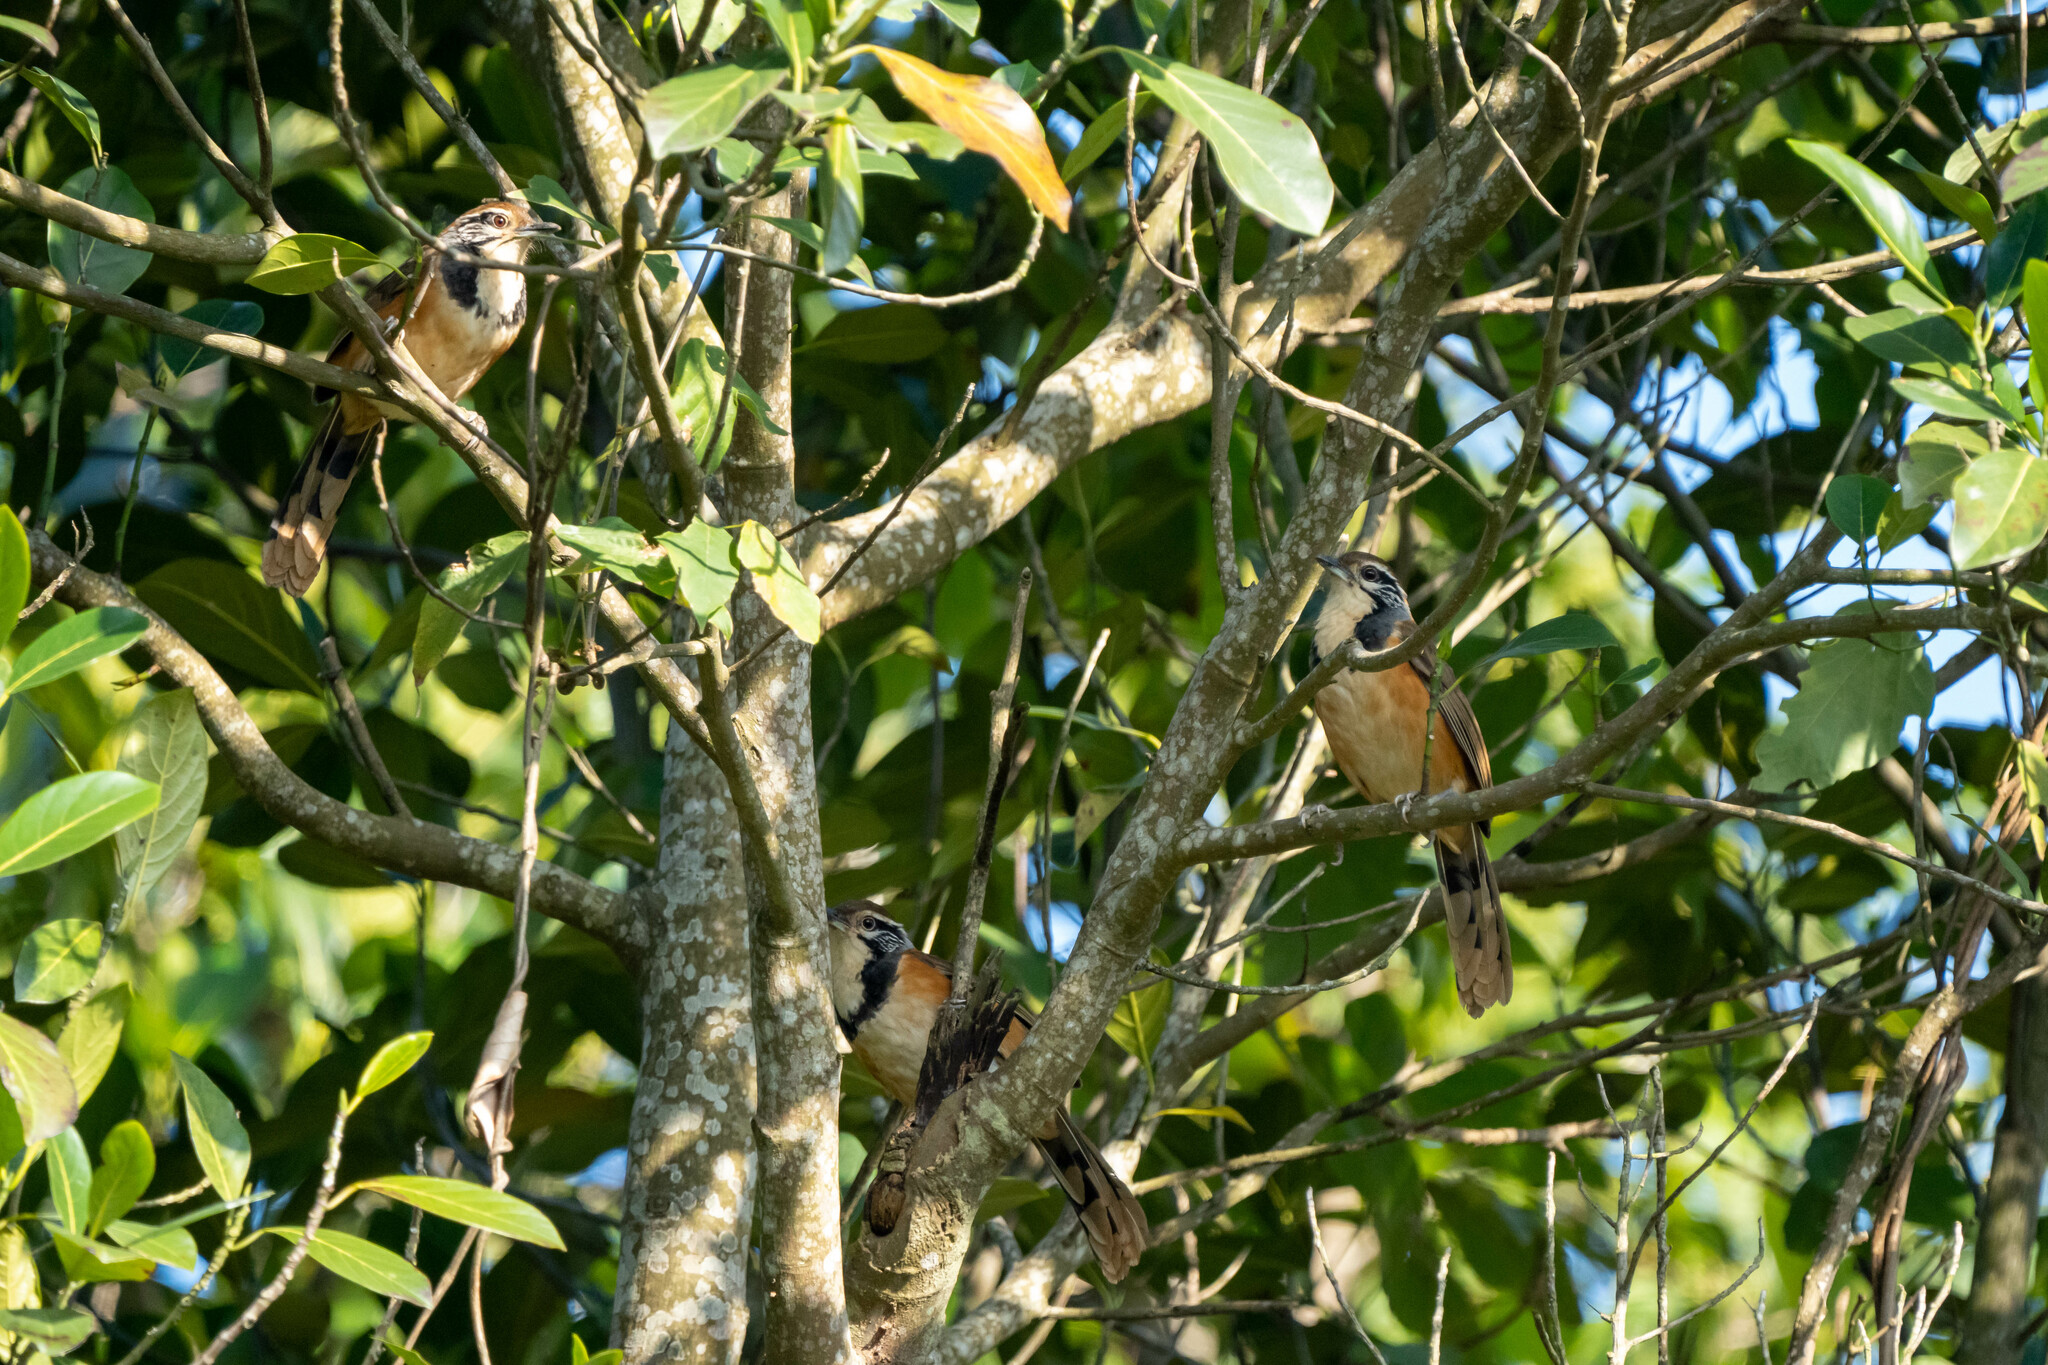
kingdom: Animalia
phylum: Chordata
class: Aves
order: Passeriformes
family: Leiothrichidae
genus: Garrulax
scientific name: Garrulax pectoralis
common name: Greater necklaced laughingthrush
